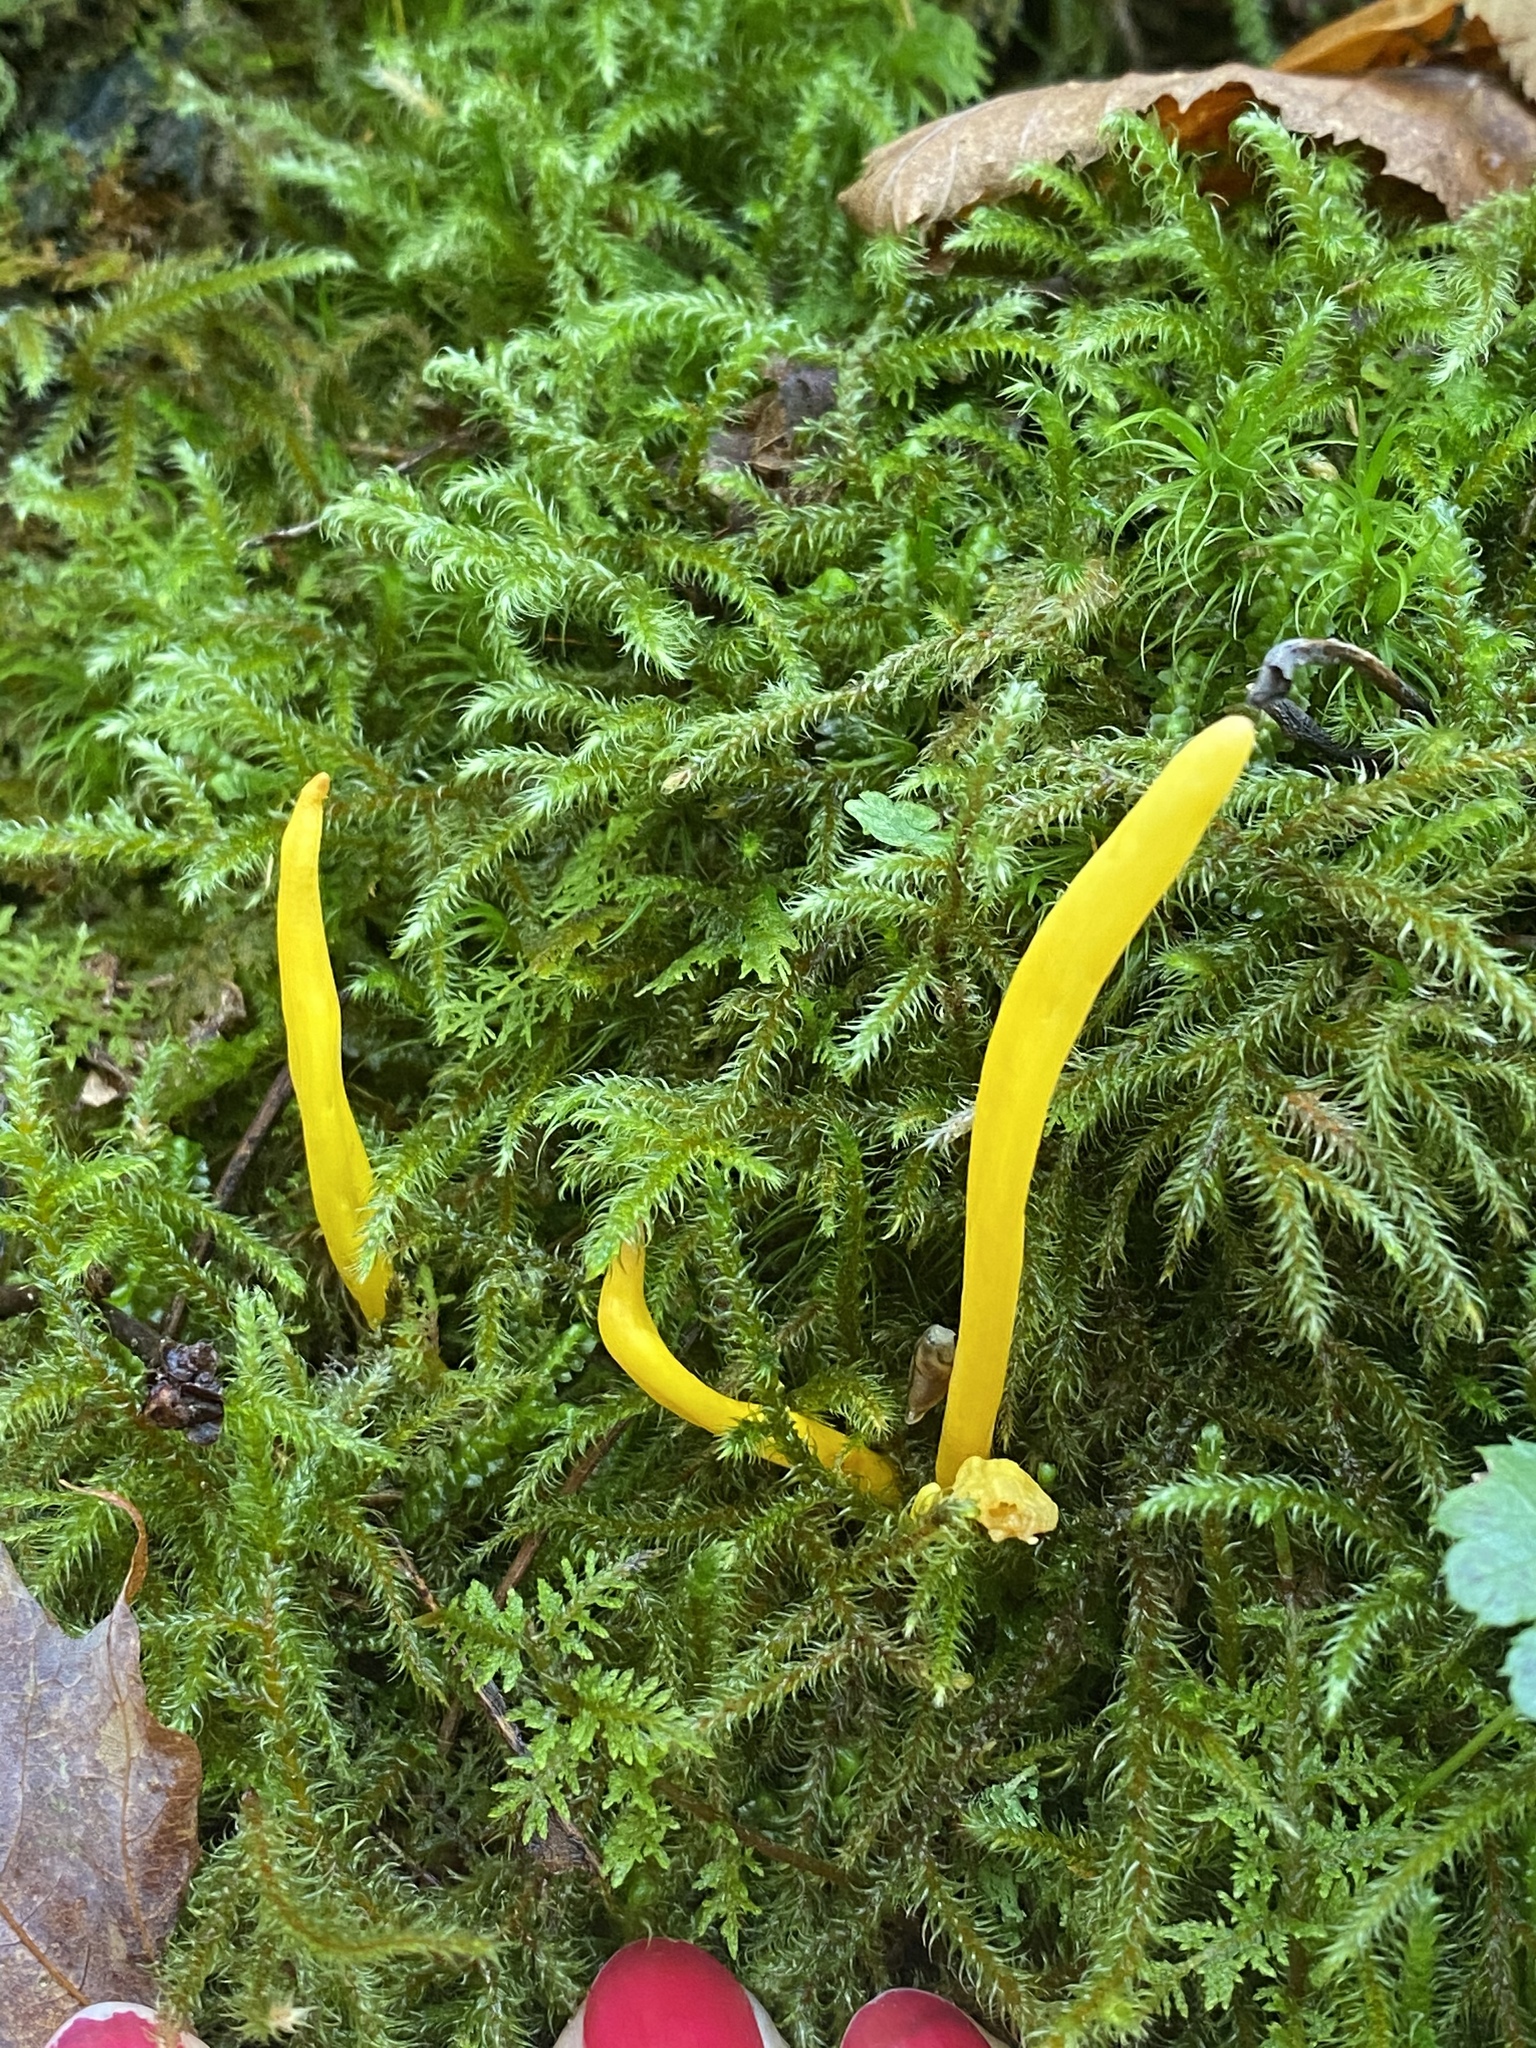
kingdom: Fungi
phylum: Basidiomycota
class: Agaricomycetes
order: Agaricales
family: Clavariaceae
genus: Clavulinopsis
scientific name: Clavulinopsis fusiformis
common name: Golden spindles
